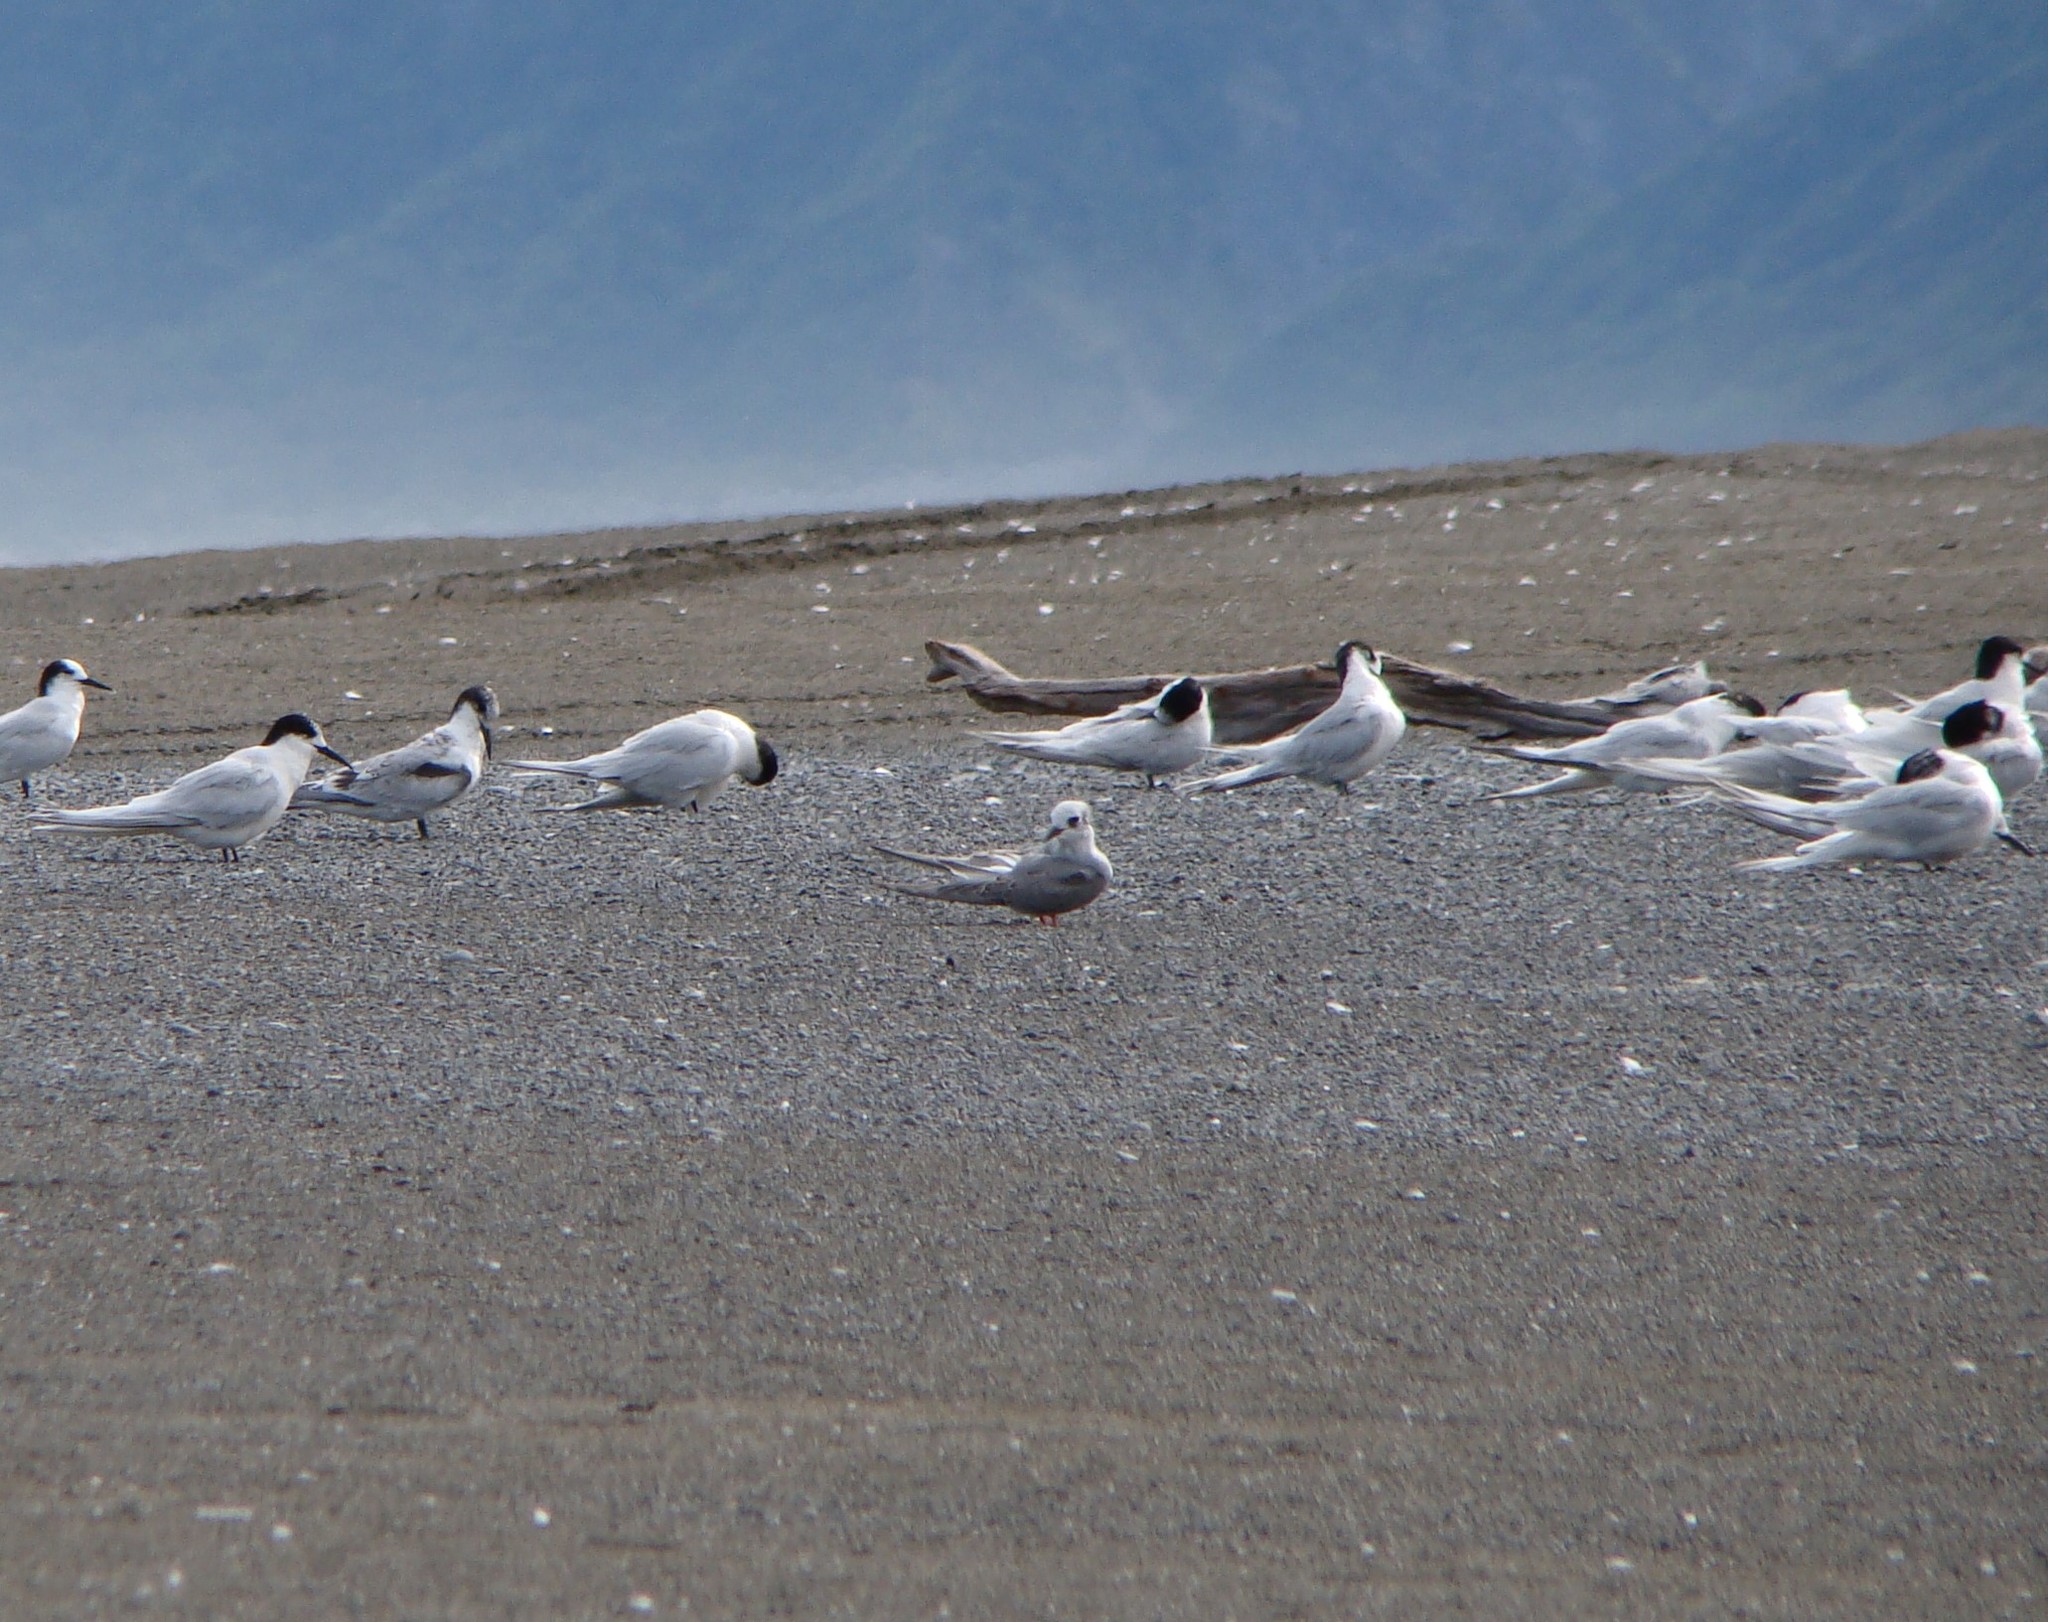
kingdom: Animalia
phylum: Chordata
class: Aves
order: Charadriiformes
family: Laridae
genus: Chlidonias
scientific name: Chlidonias albostriatus
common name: Black-fronted tern
